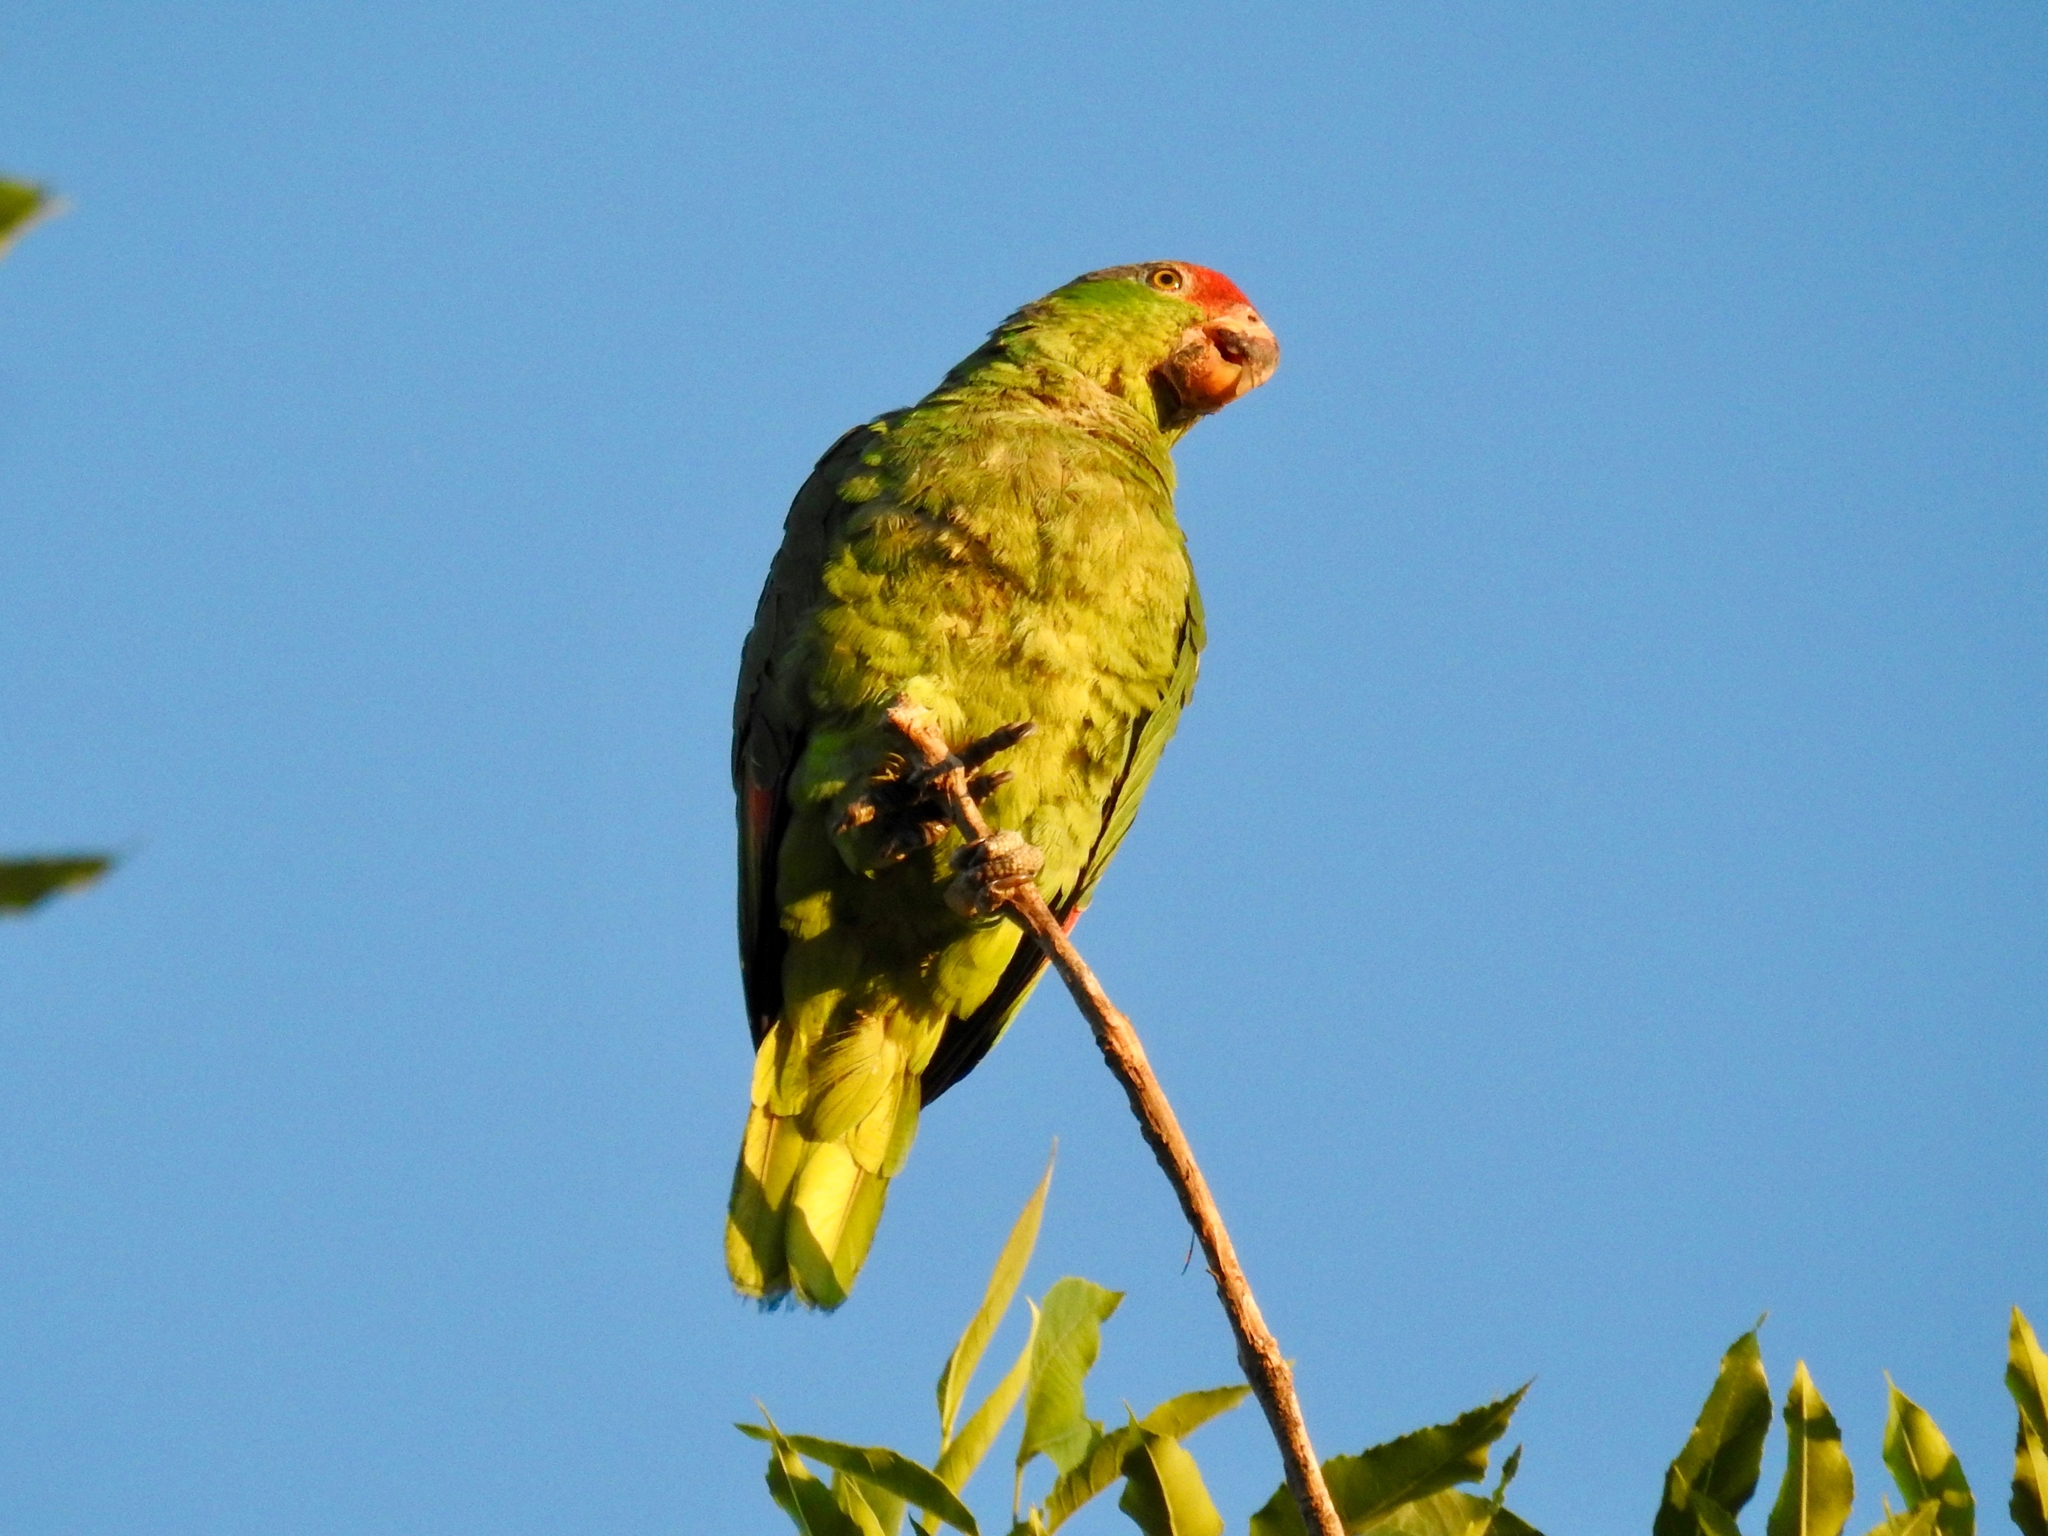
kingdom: Animalia
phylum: Chordata
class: Aves
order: Psittaciformes
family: Psittacidae
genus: Amazona
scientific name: Amazona viridigenalis
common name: Red-crowned amazon
